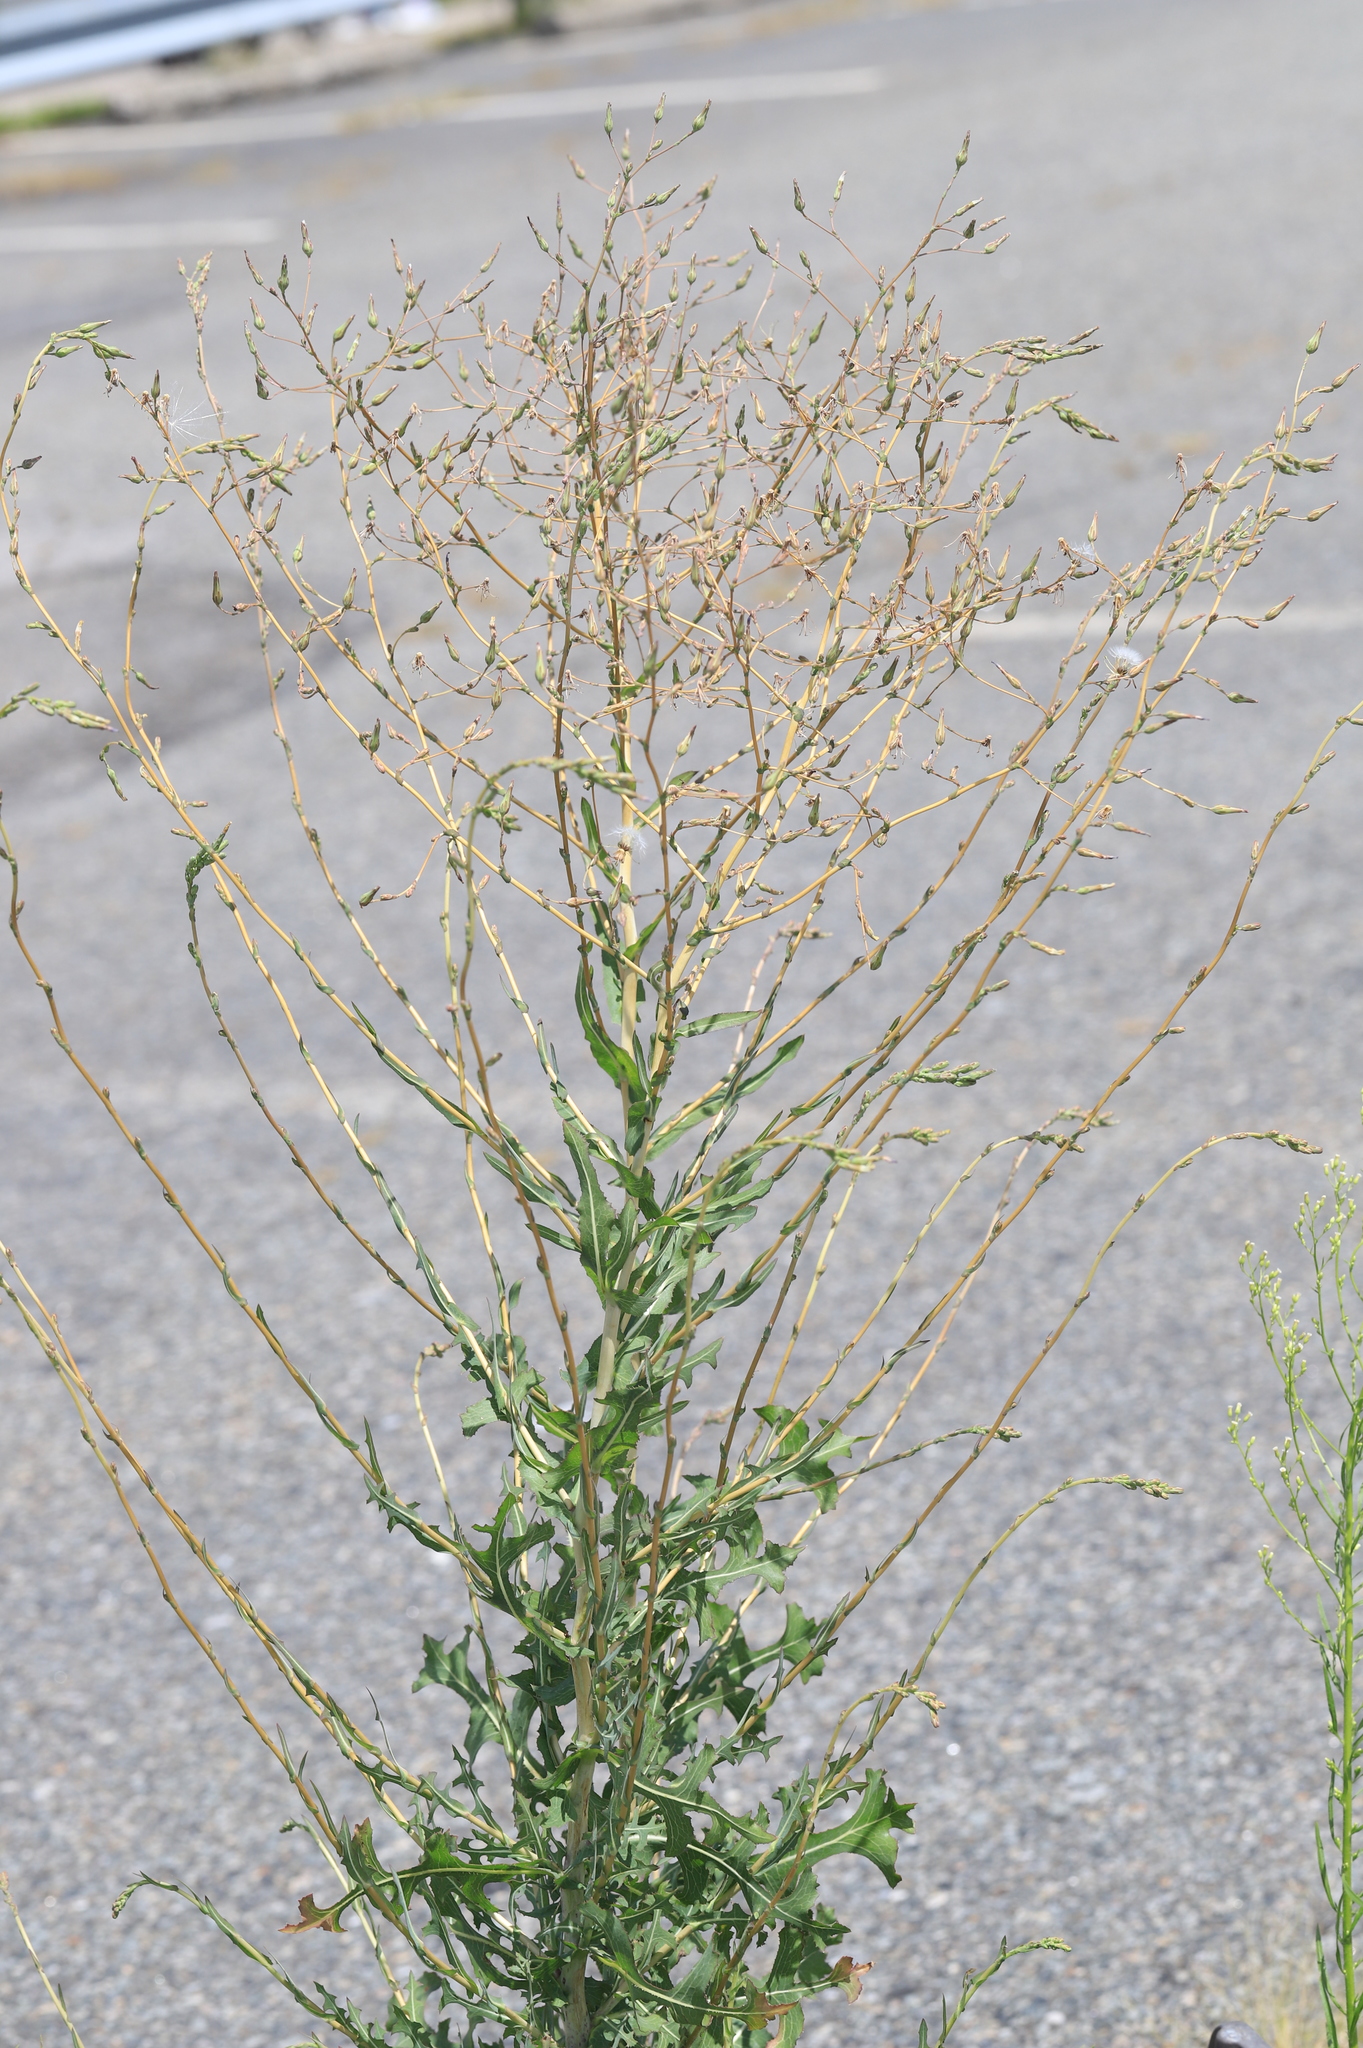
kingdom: Plantae
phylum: Tracheophyta
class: Magnoliopsida
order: Asterales
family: Asteraceae
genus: Lactuca
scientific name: Lactuca canadensis
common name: Canada lettuce
